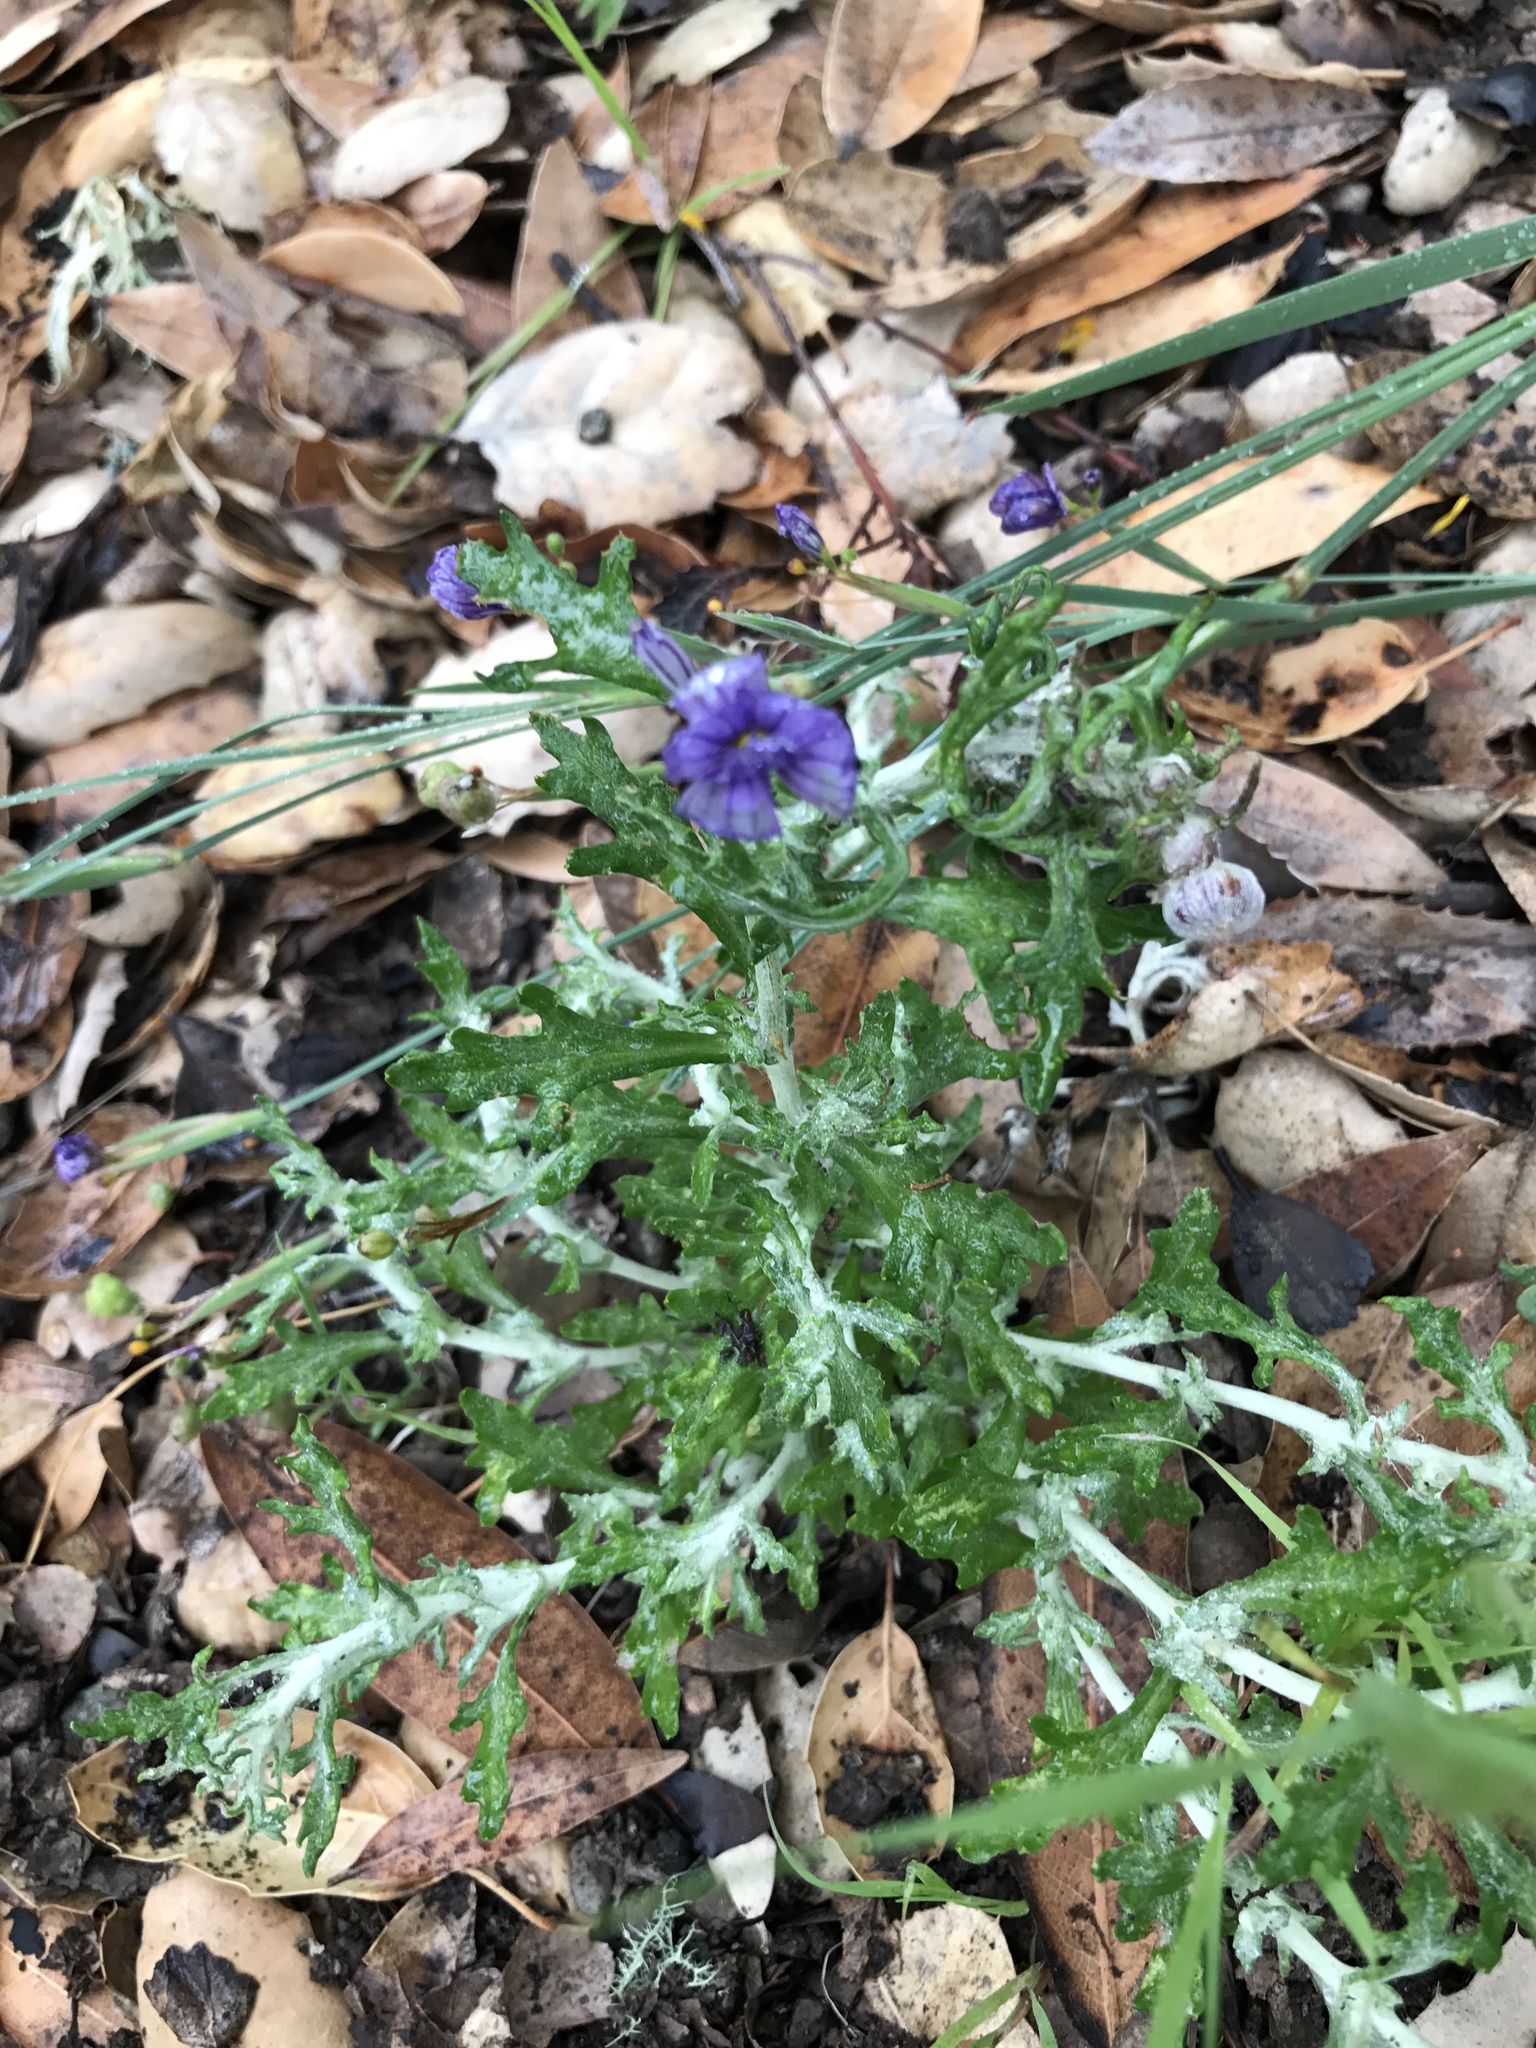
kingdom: Plantae
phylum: Tracheophyta
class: Liliopsida
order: Asparagales
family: Iridaceae
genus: Sisyrinchium
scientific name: Sisyrinchium bellum
